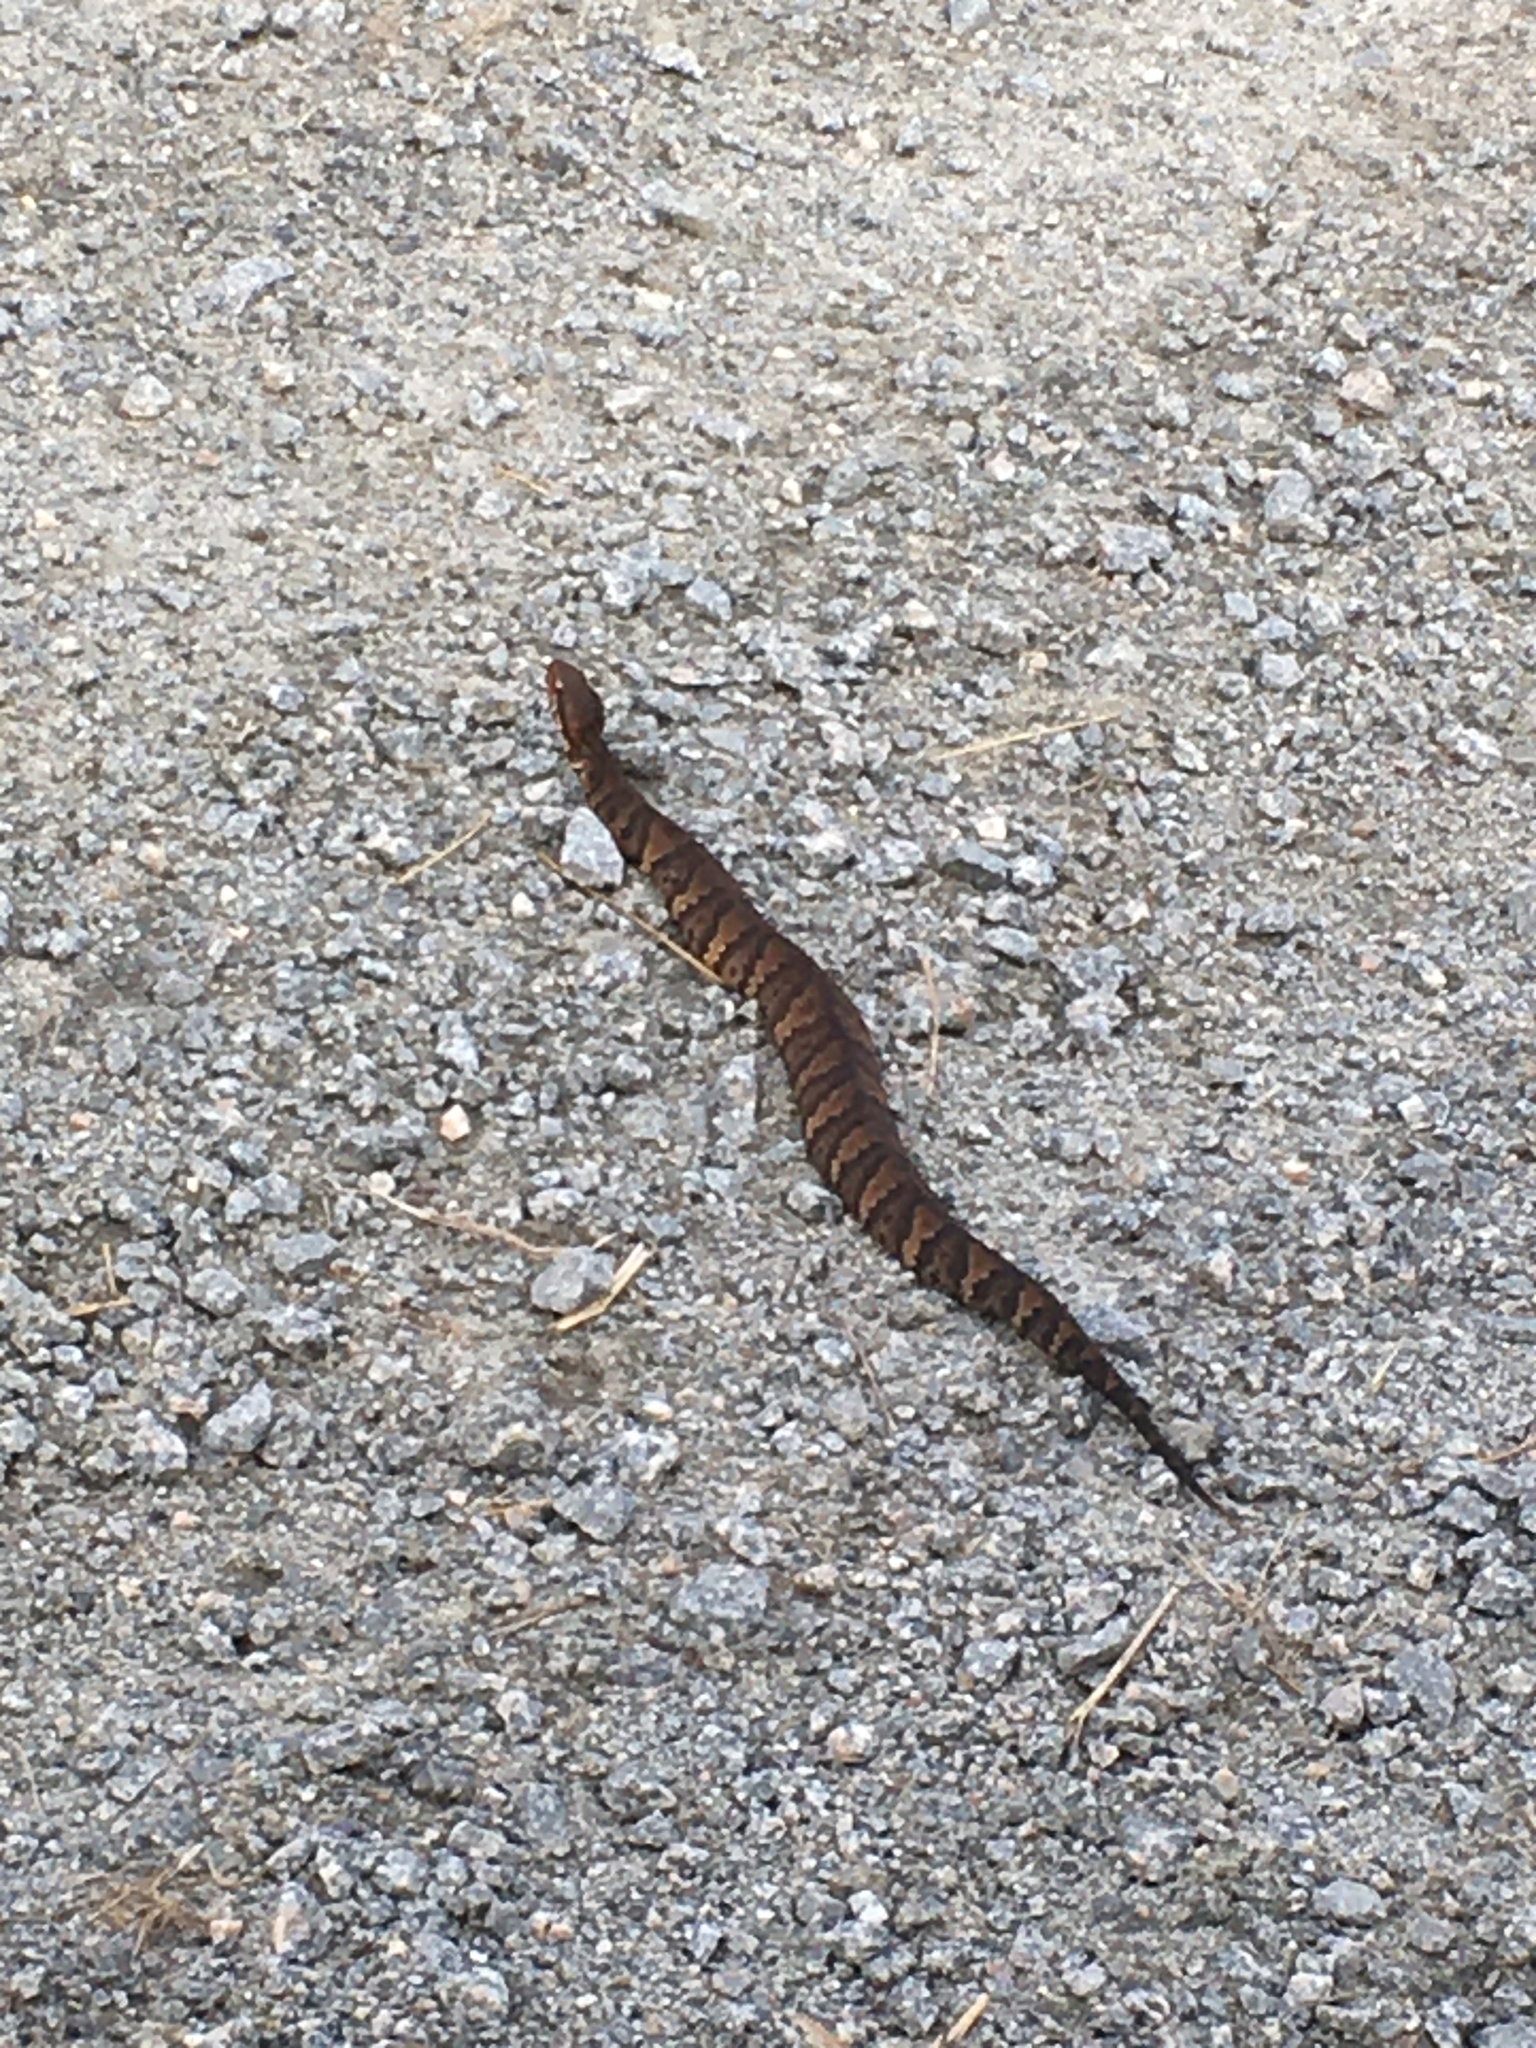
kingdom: Animalia
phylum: Chordata
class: Squamata
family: Viperidae
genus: Agkistrodon
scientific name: Agkistrodon piscivorus
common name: Cottonmouth
